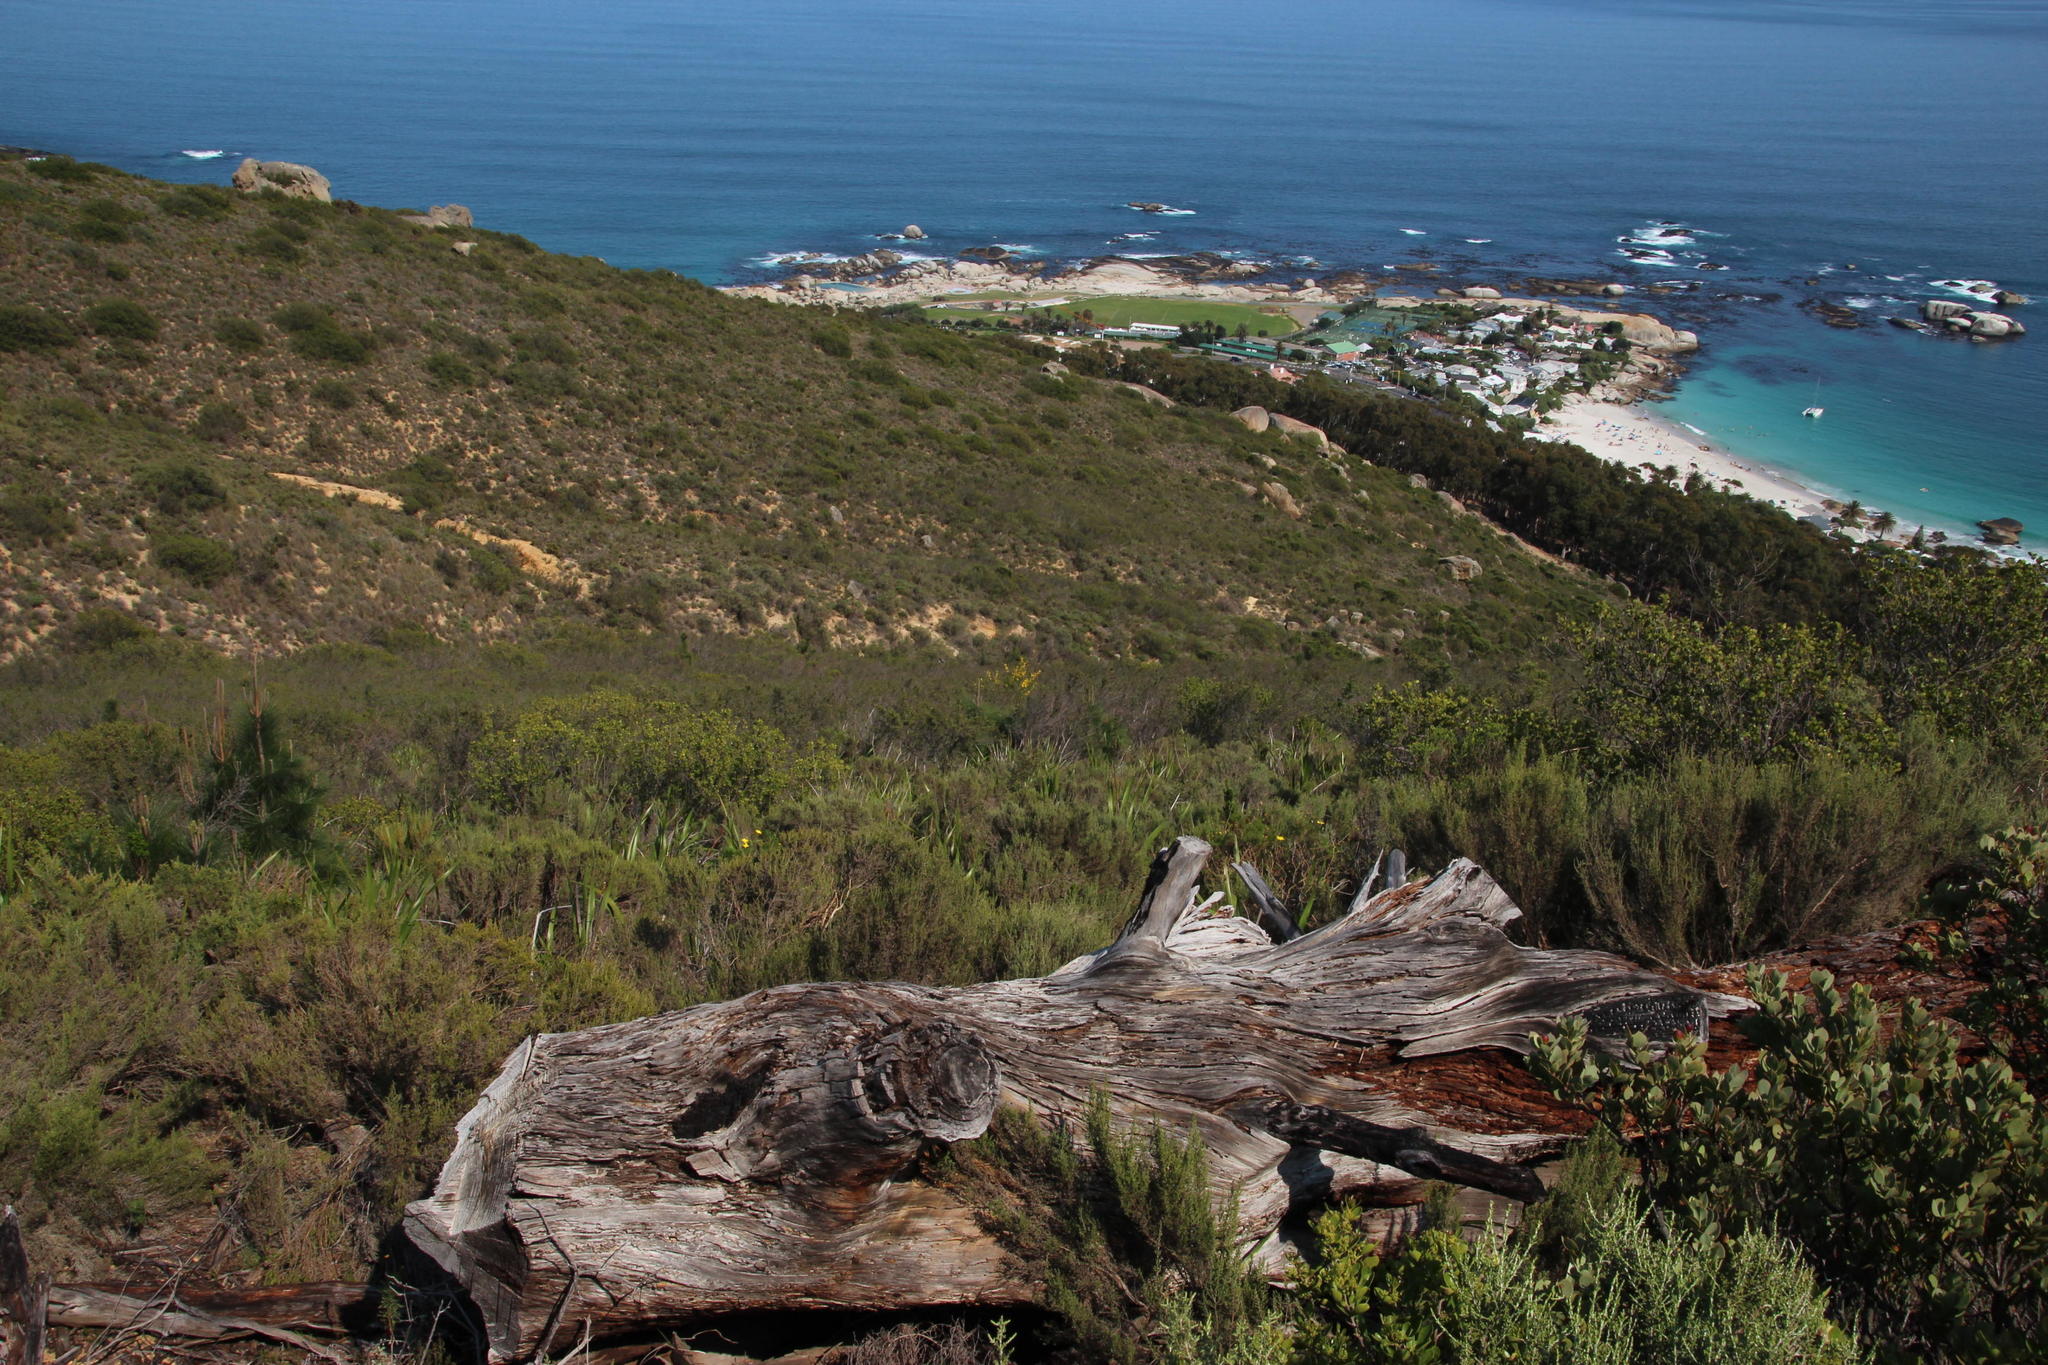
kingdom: Plantae
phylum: Tracheophyta
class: Magnoliopsida
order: Sapindales
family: Anacardiaceae
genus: Searsia
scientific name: Searsia lucida
